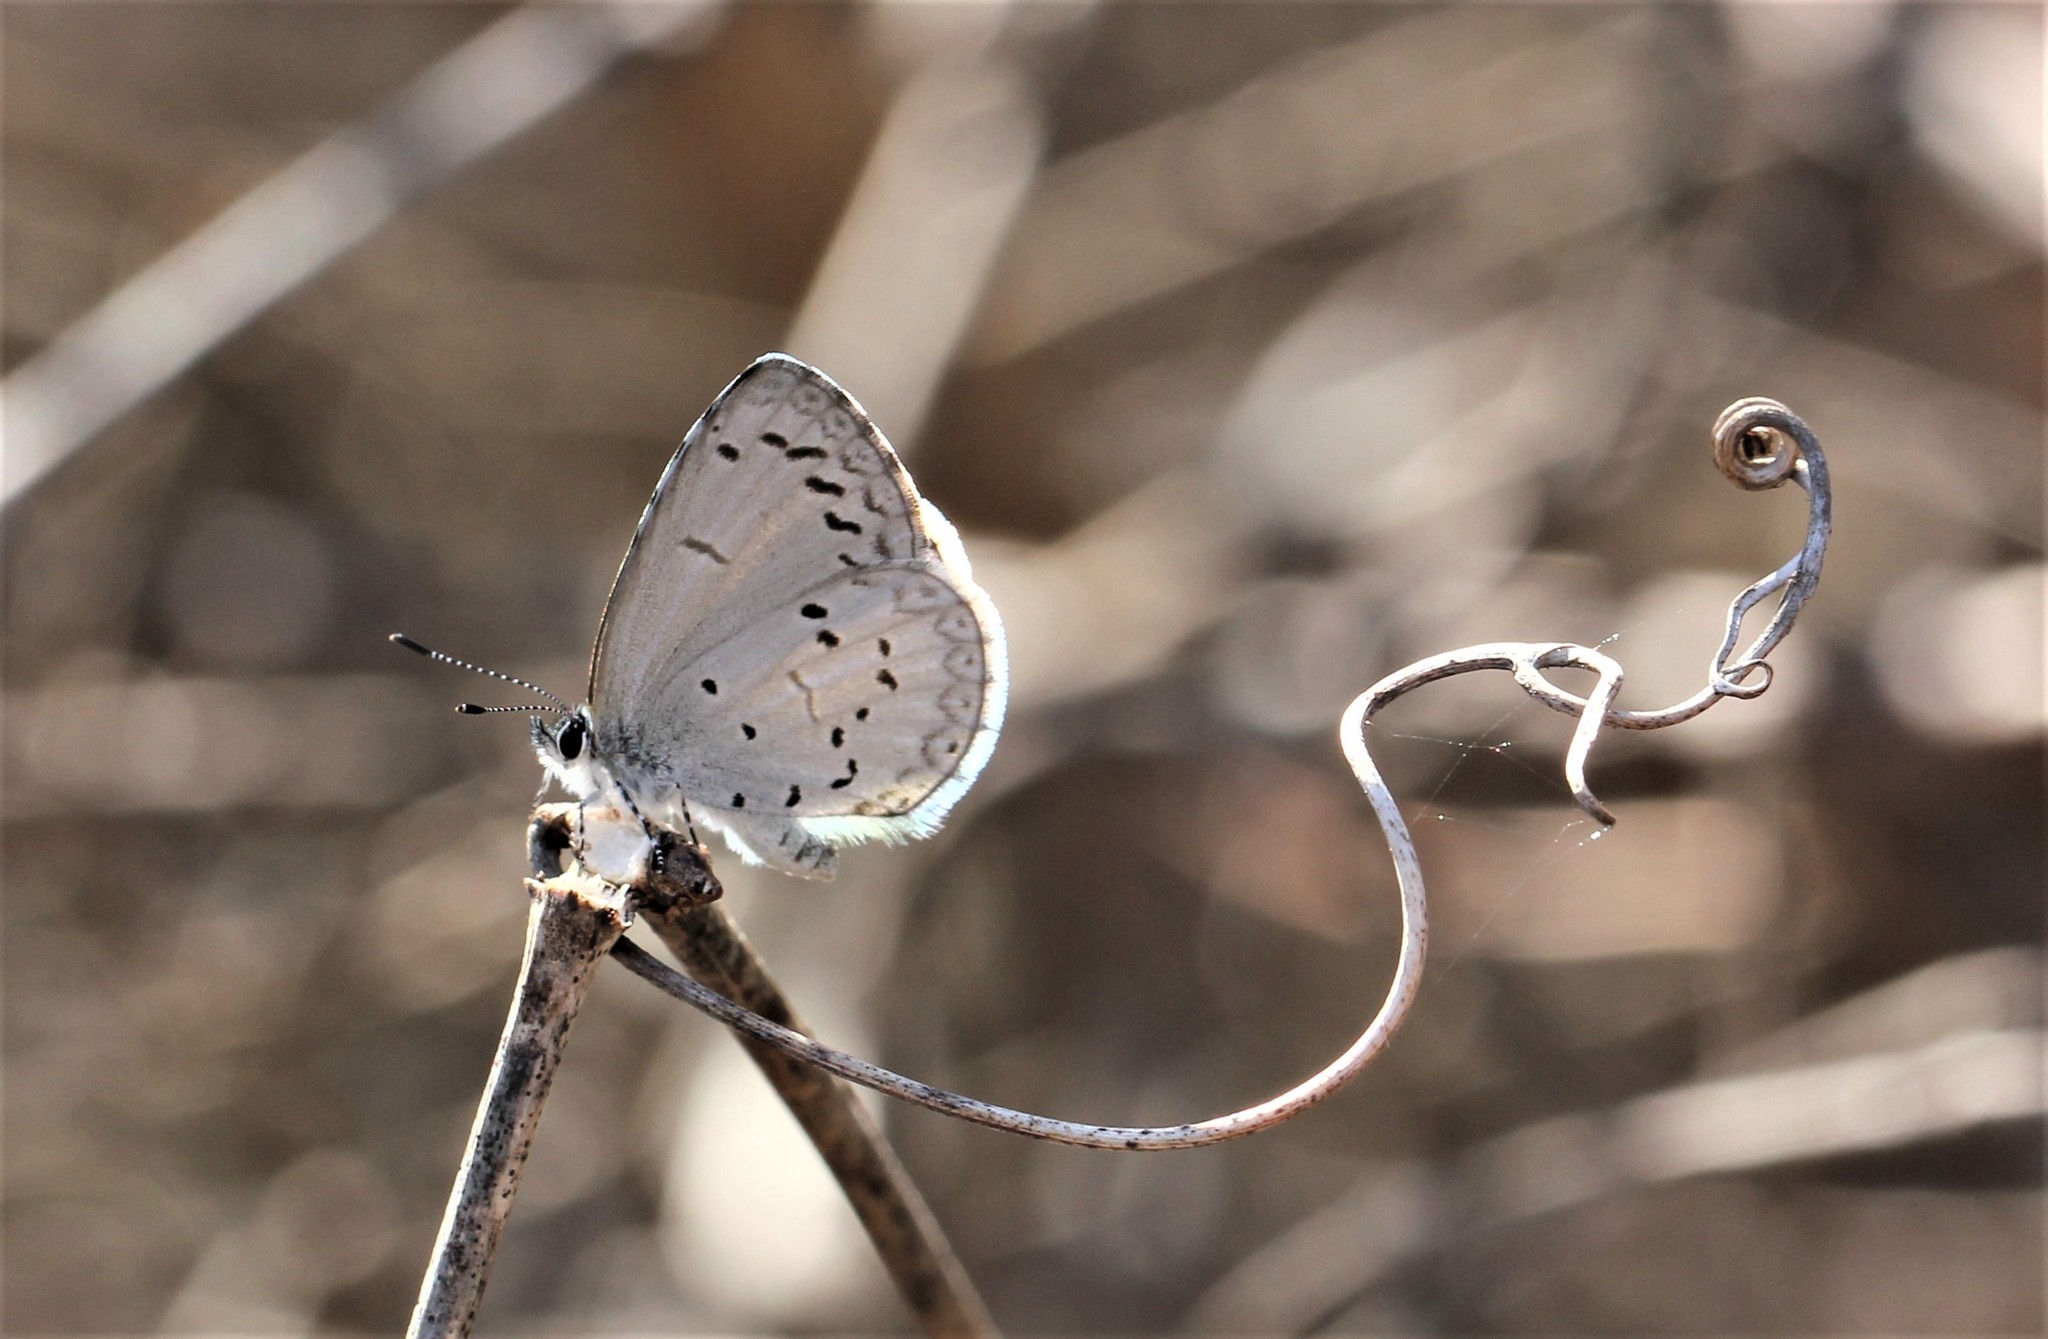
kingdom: Animalia
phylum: Arthropoda
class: Insecta
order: Lepidoptera
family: Lycaenidae
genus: Cyaniris
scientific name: Cyaniris neglecta
